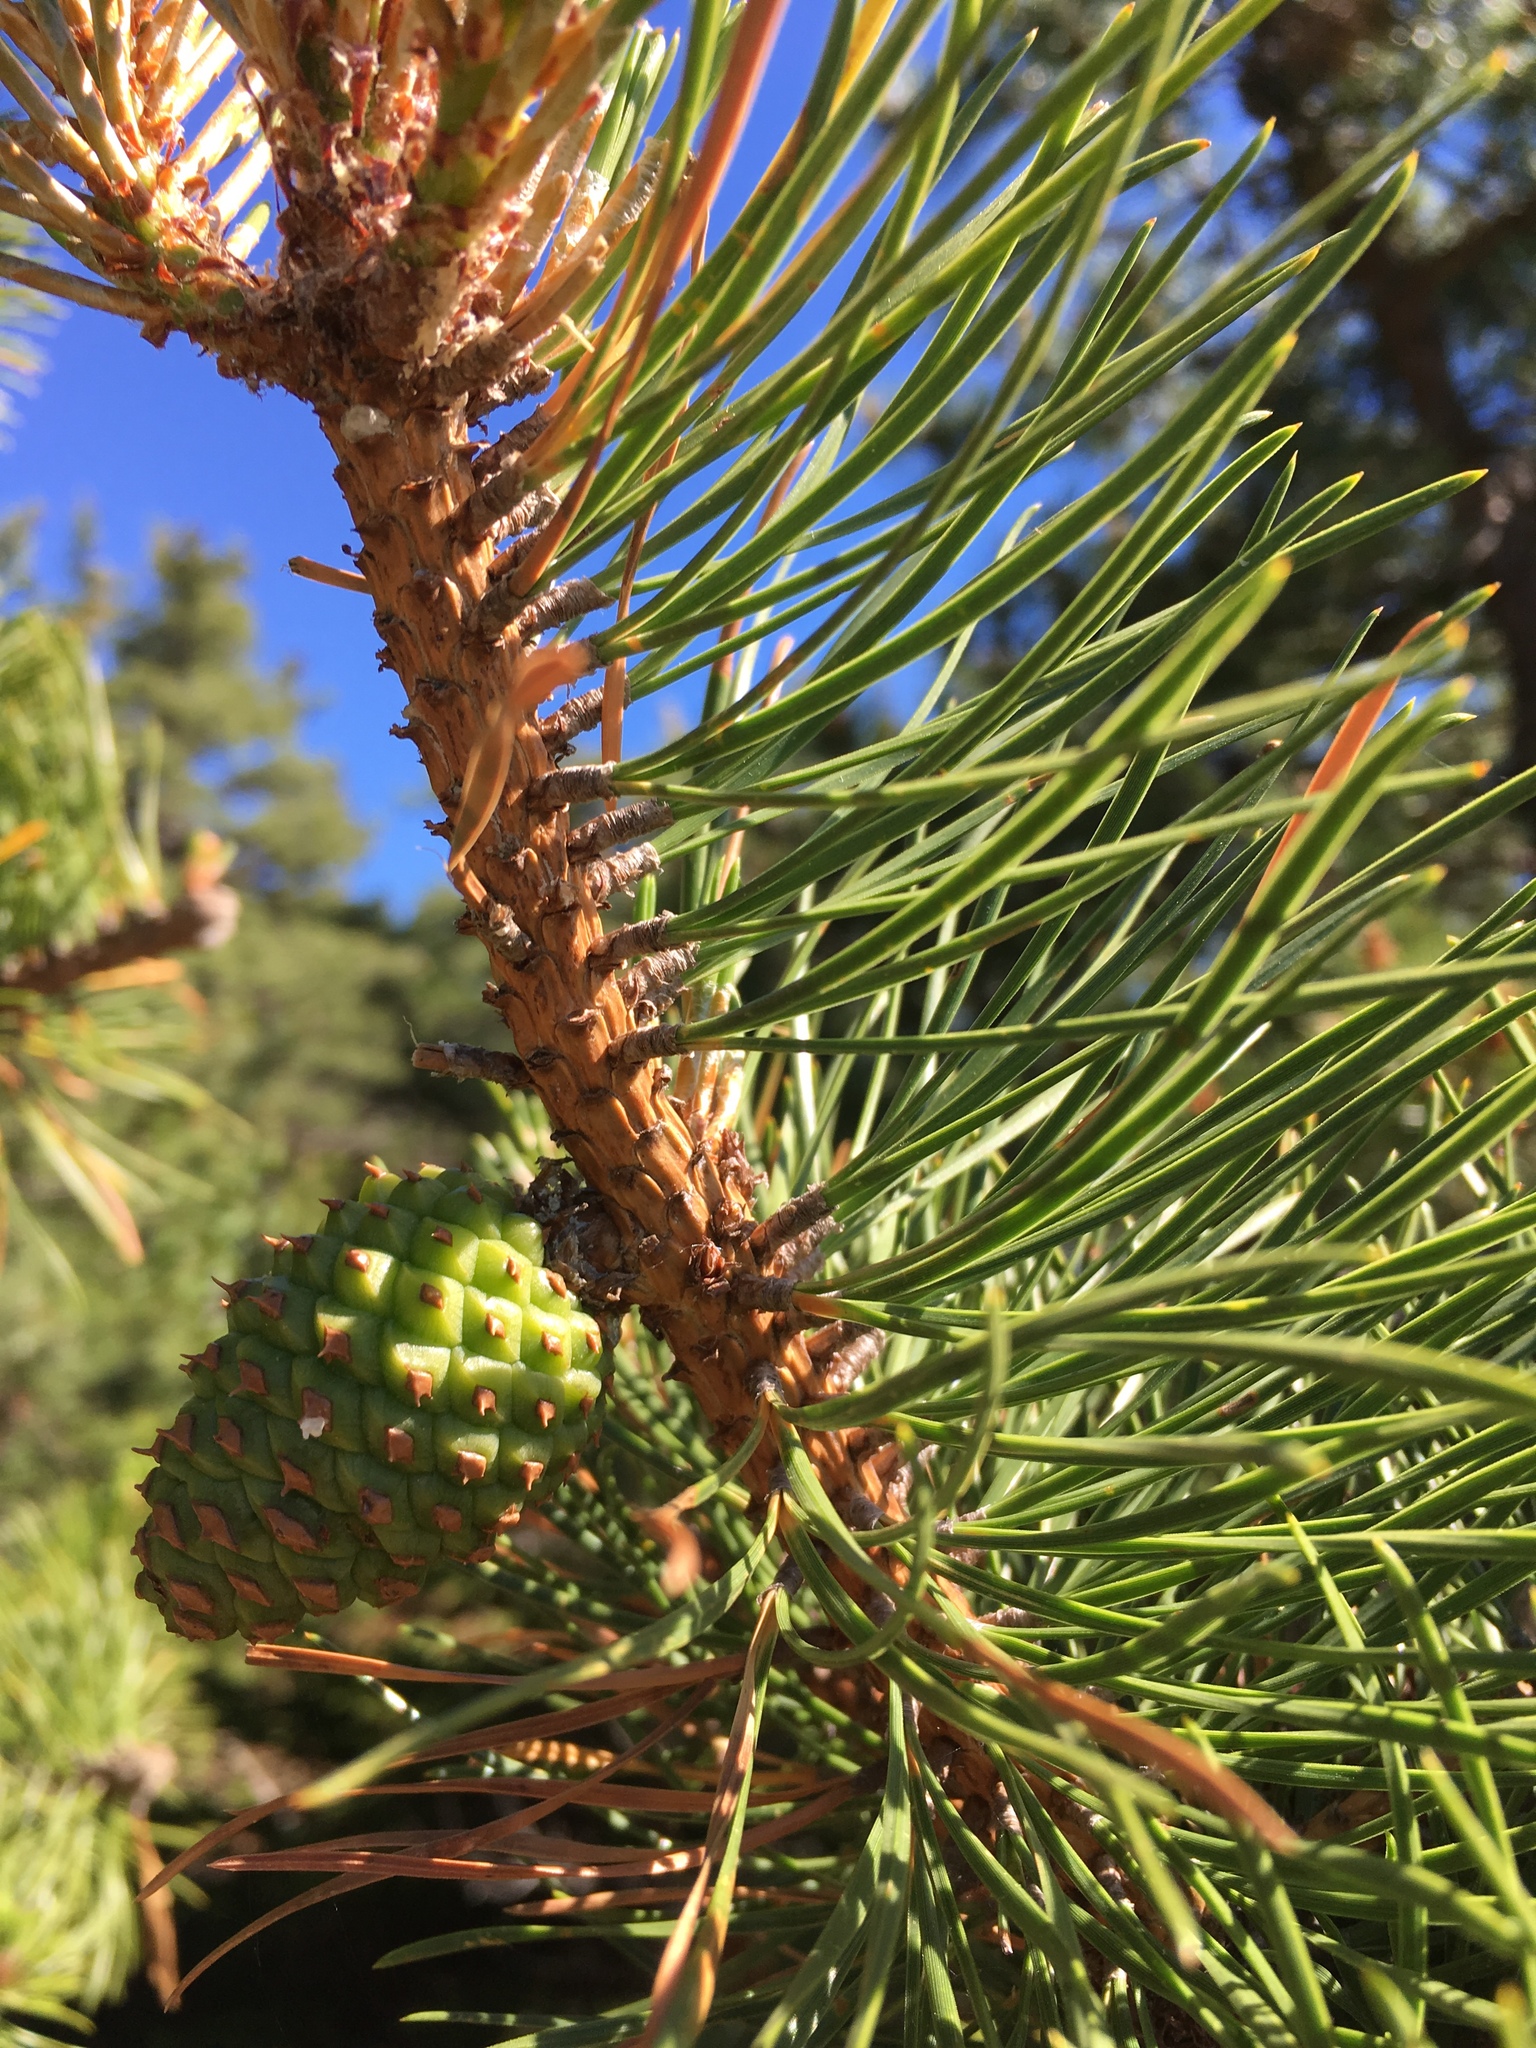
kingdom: Plantae
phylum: Tracheophyta
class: Pinopsida
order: Pinales
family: Pinaceae
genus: Pinus
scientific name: Pinus rigida
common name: Pitch pine
